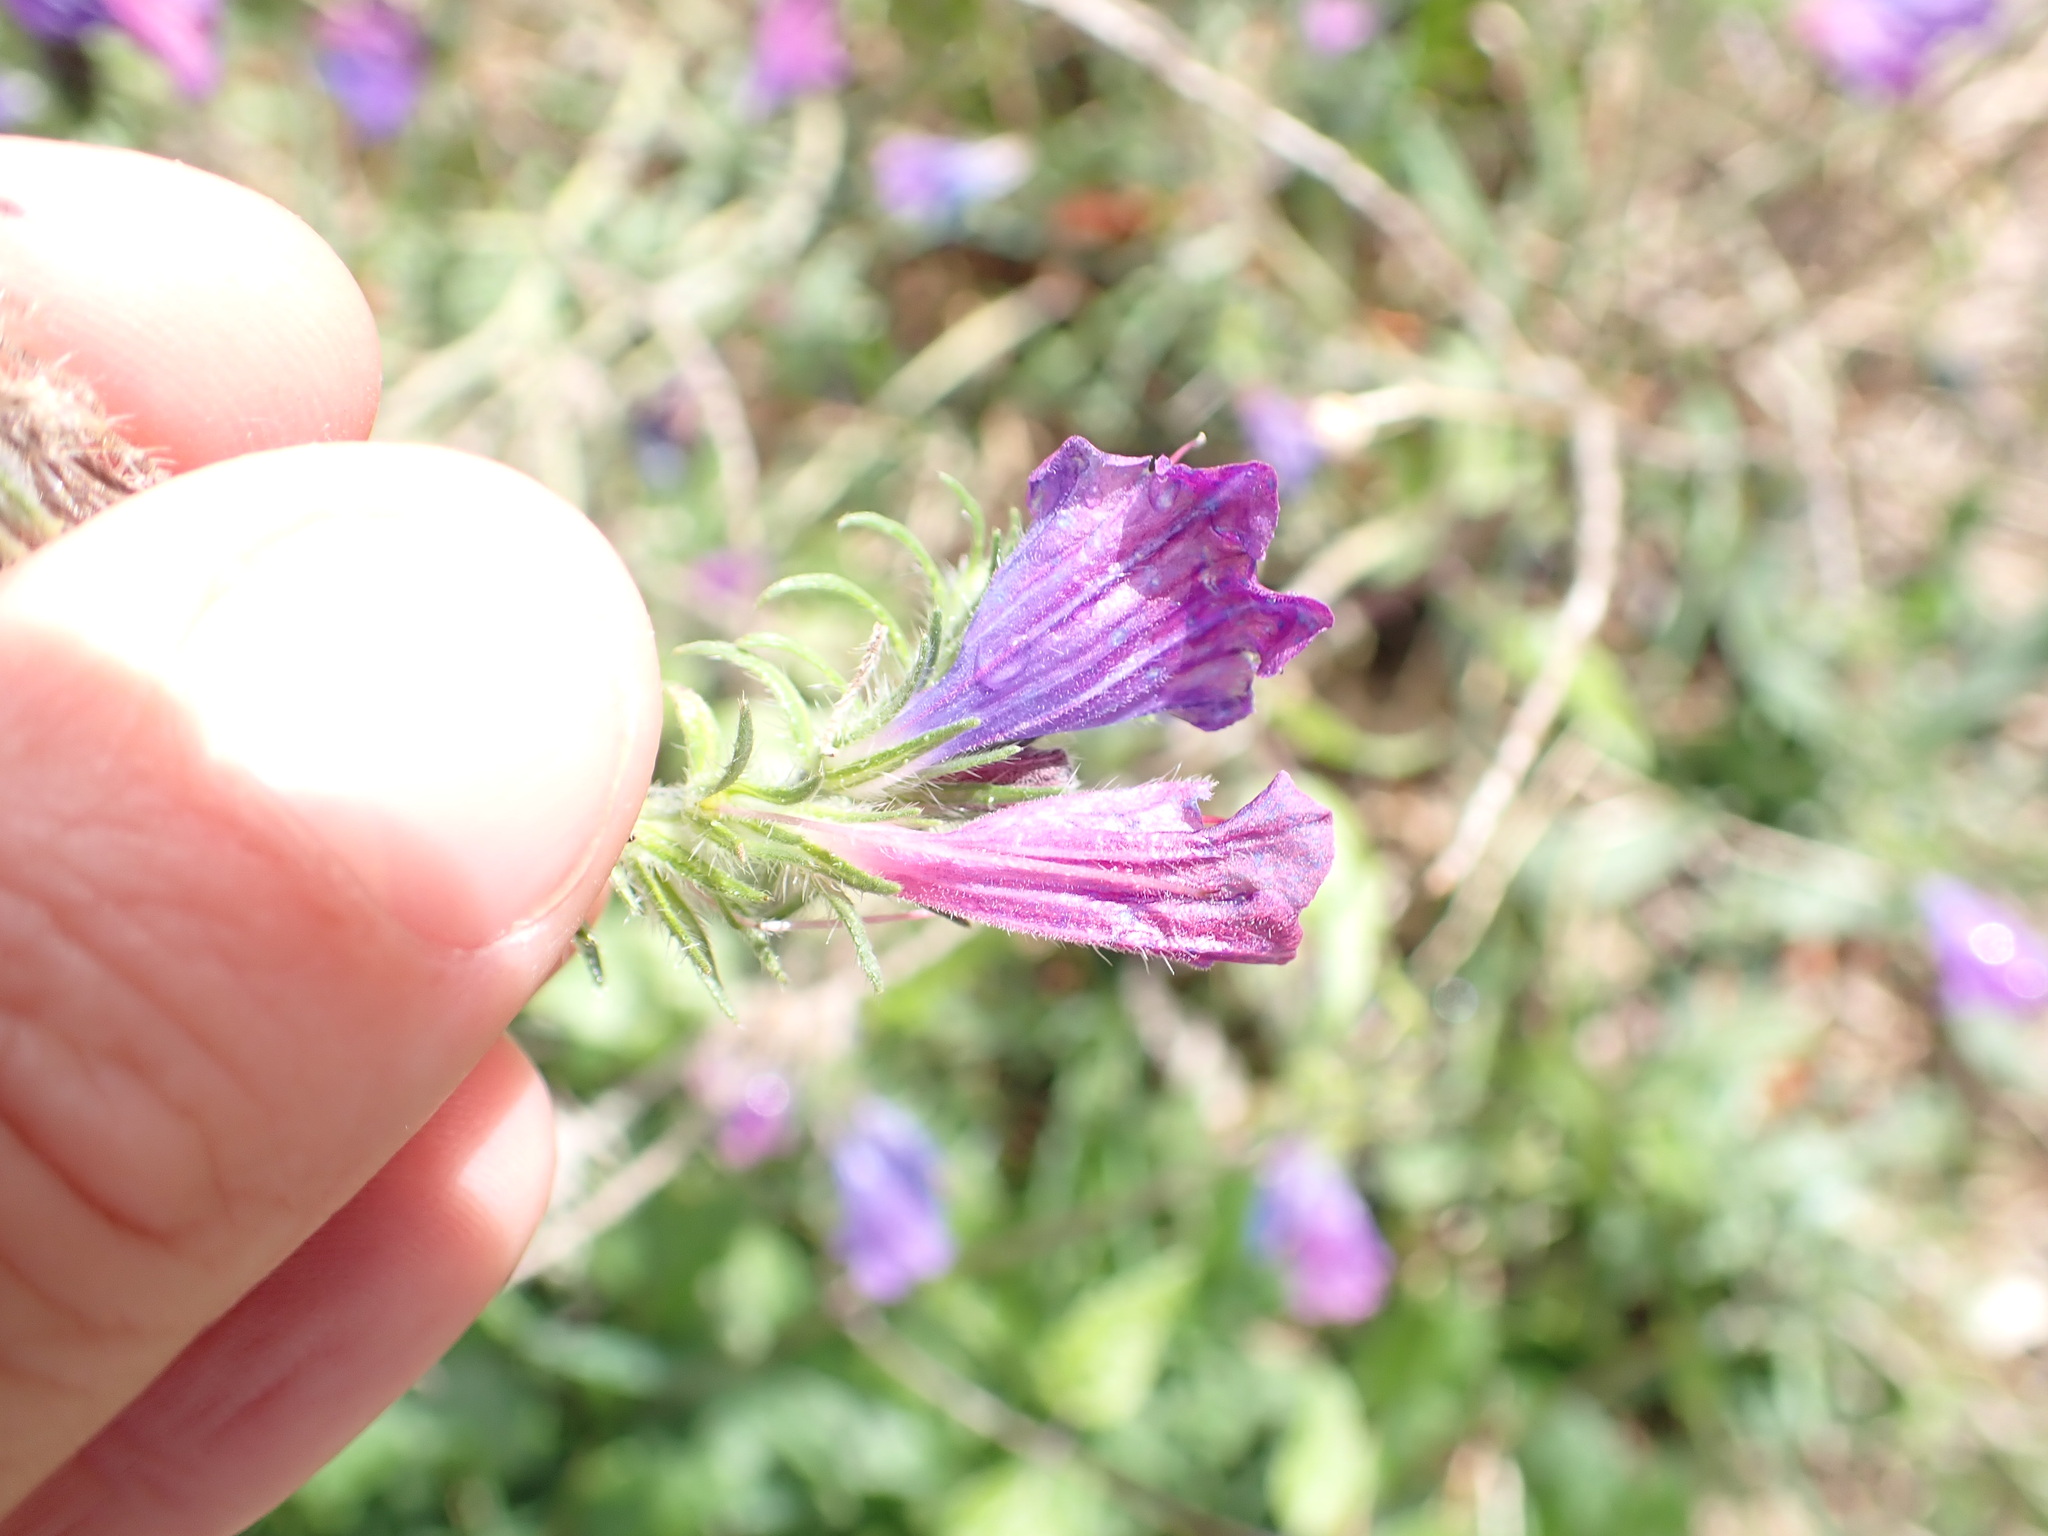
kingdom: Plantae
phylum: Tracheophyta
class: Magnoliopsida
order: Boraginales
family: Boraginaceae
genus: Echium
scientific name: Echium vulgare
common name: Common viper's bugloss
